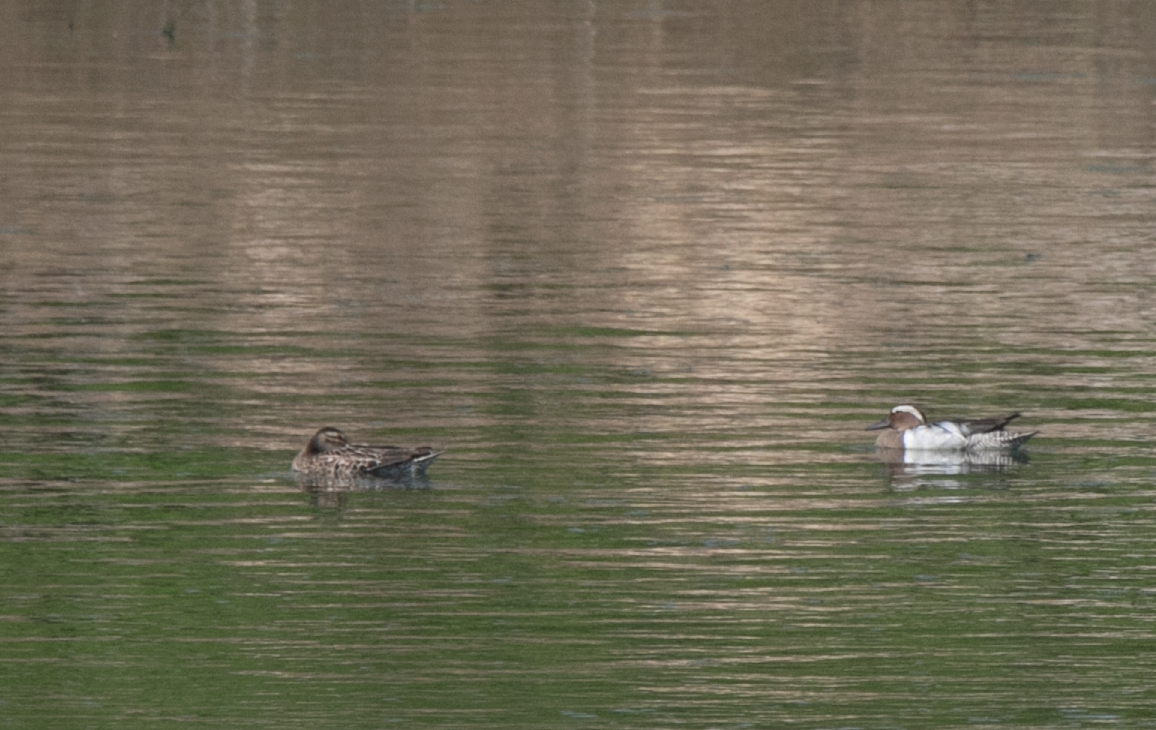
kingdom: Animalia
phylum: Chordata
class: Aves
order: Anseriformes
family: Anatidae
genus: Spatula
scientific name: Spatula querquedula
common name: Garganey
